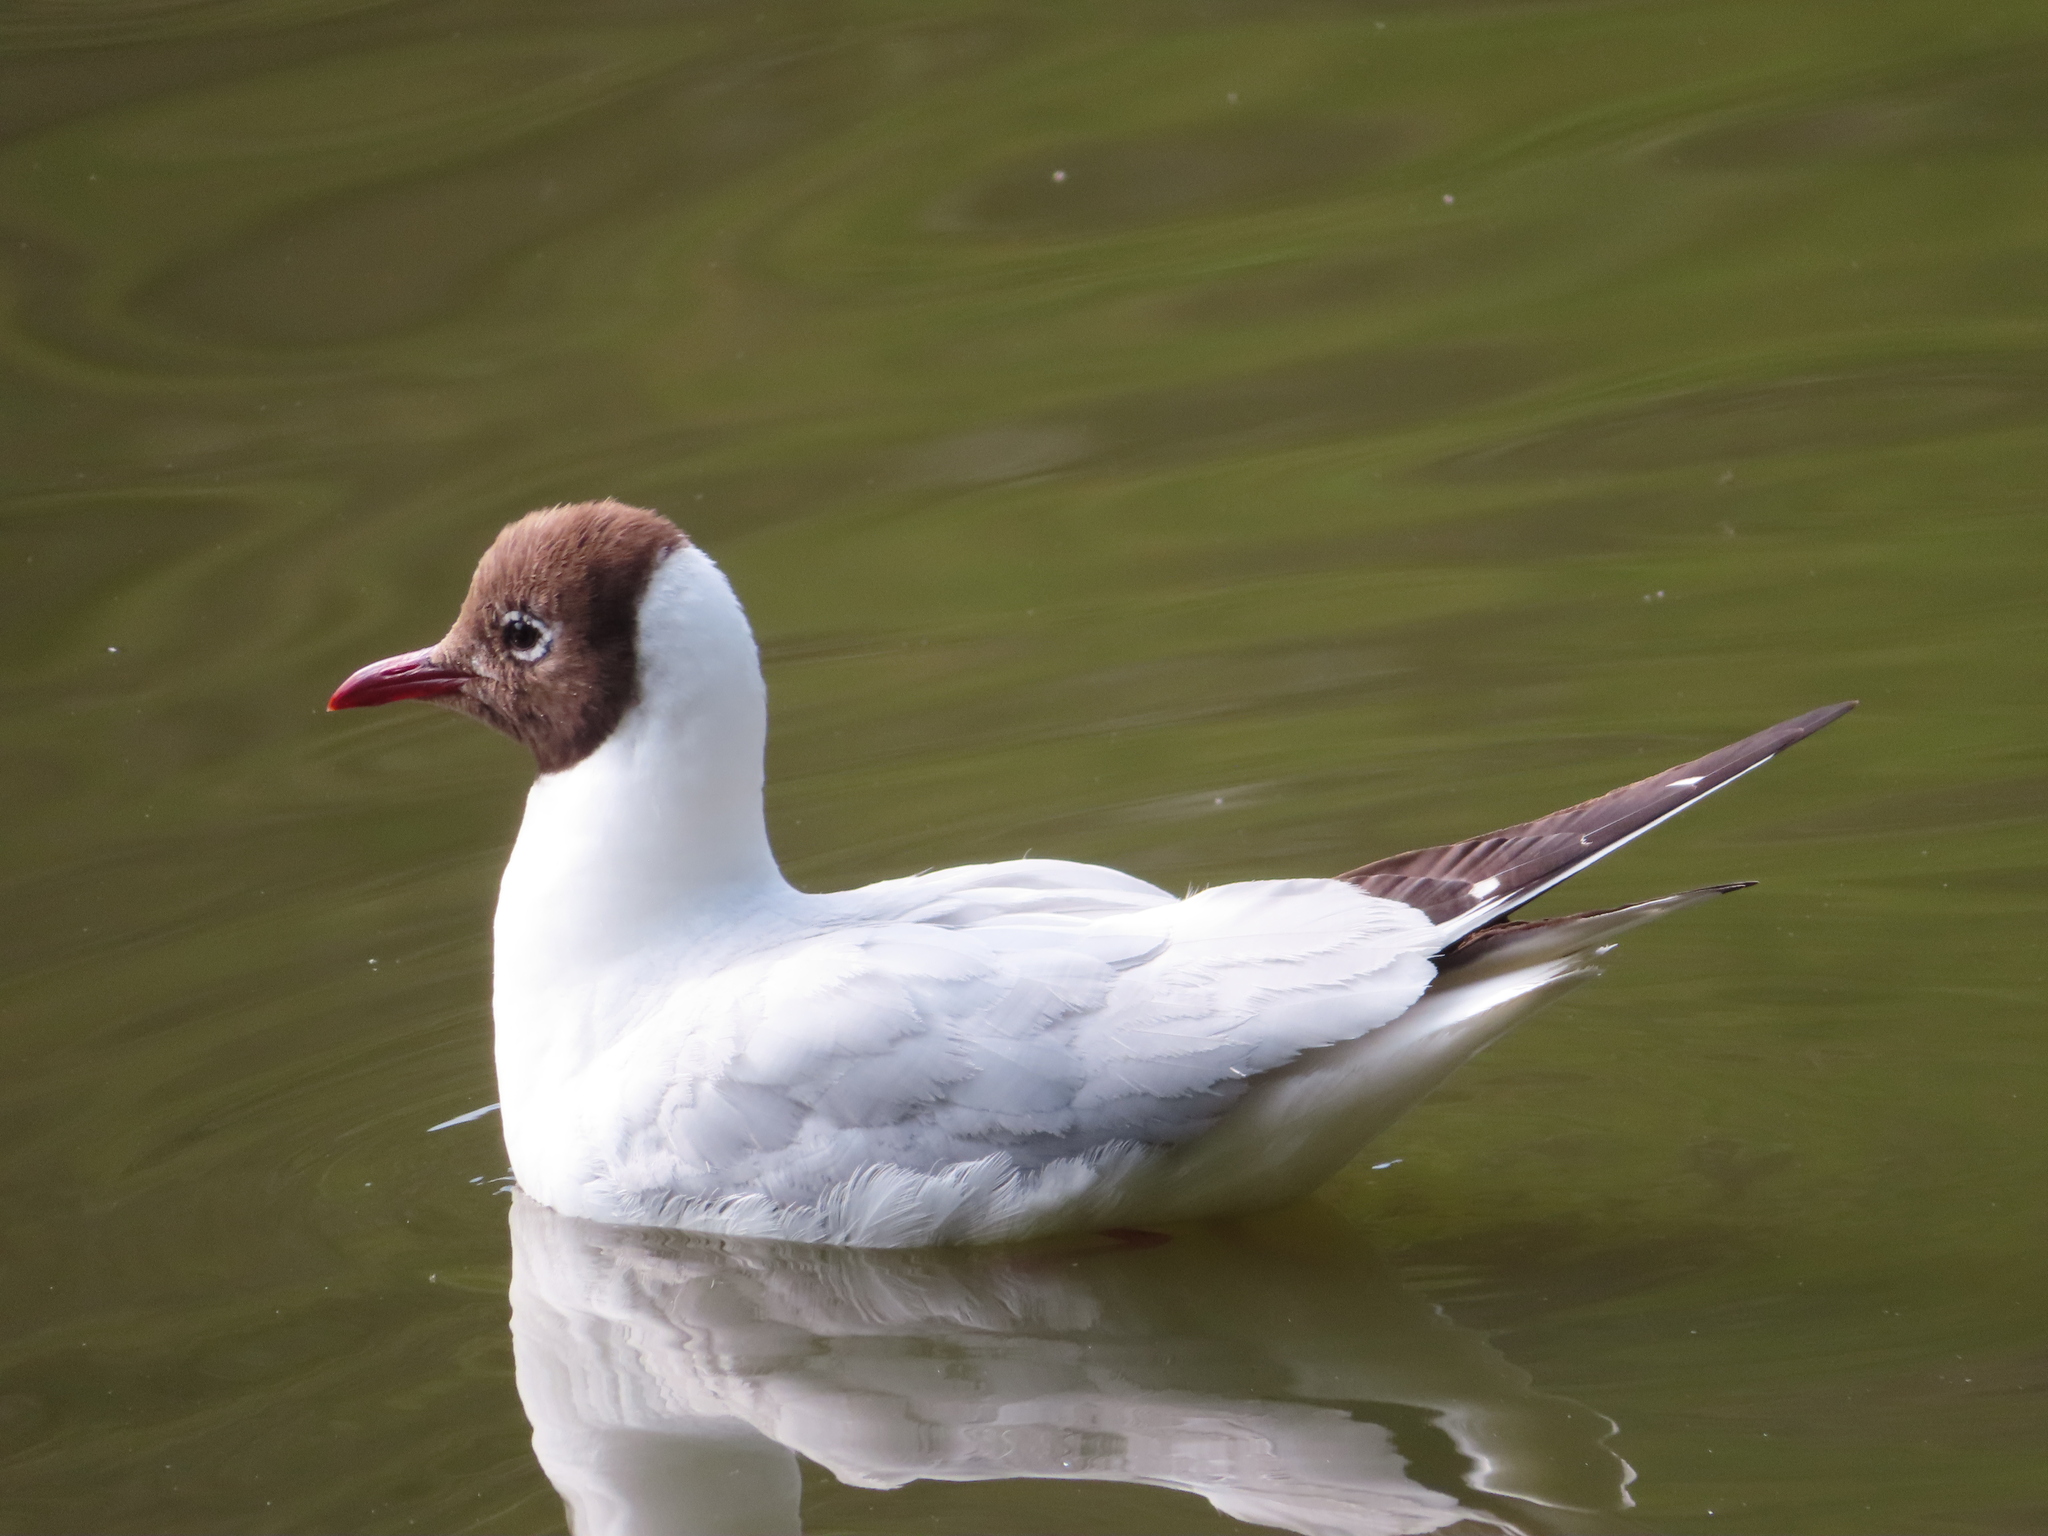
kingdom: Animalia
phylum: Chordata
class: Aves
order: Charadriiformes
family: Laridae
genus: Chroicocephalus
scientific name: Chroicocephalus ridibundus
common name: Black-headed gull
